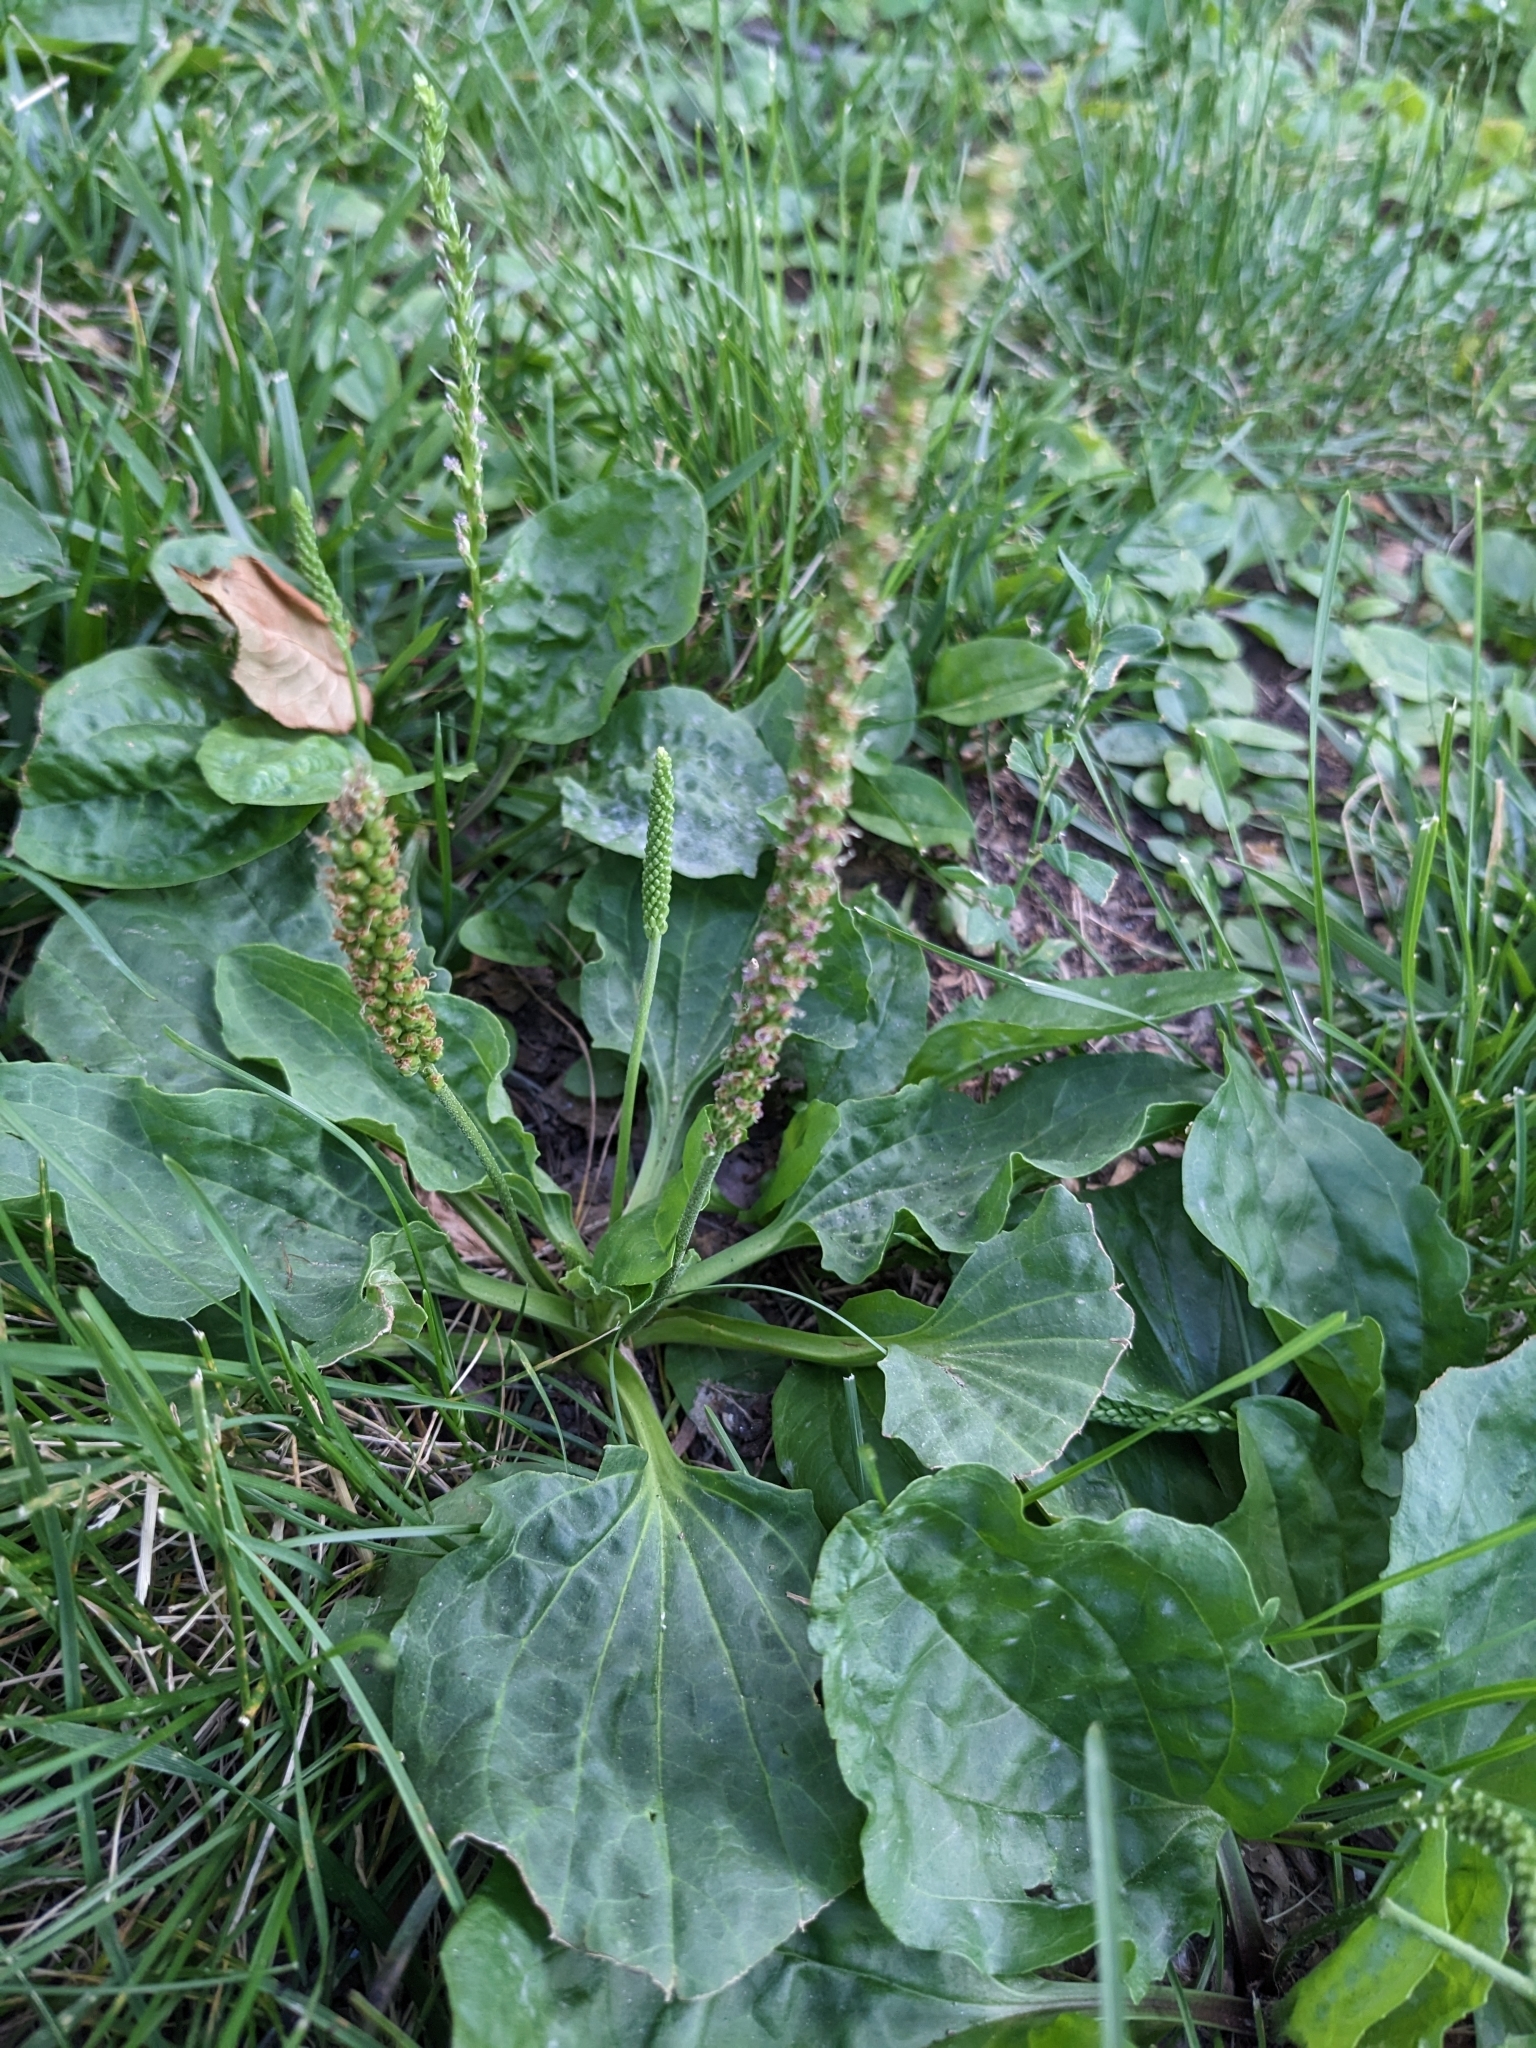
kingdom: Plantae
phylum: Tracheophyta
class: Magnoliopsida
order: Lamiales
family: Plantaginaceae
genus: Plantago
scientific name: Plantago major
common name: Common plantain
